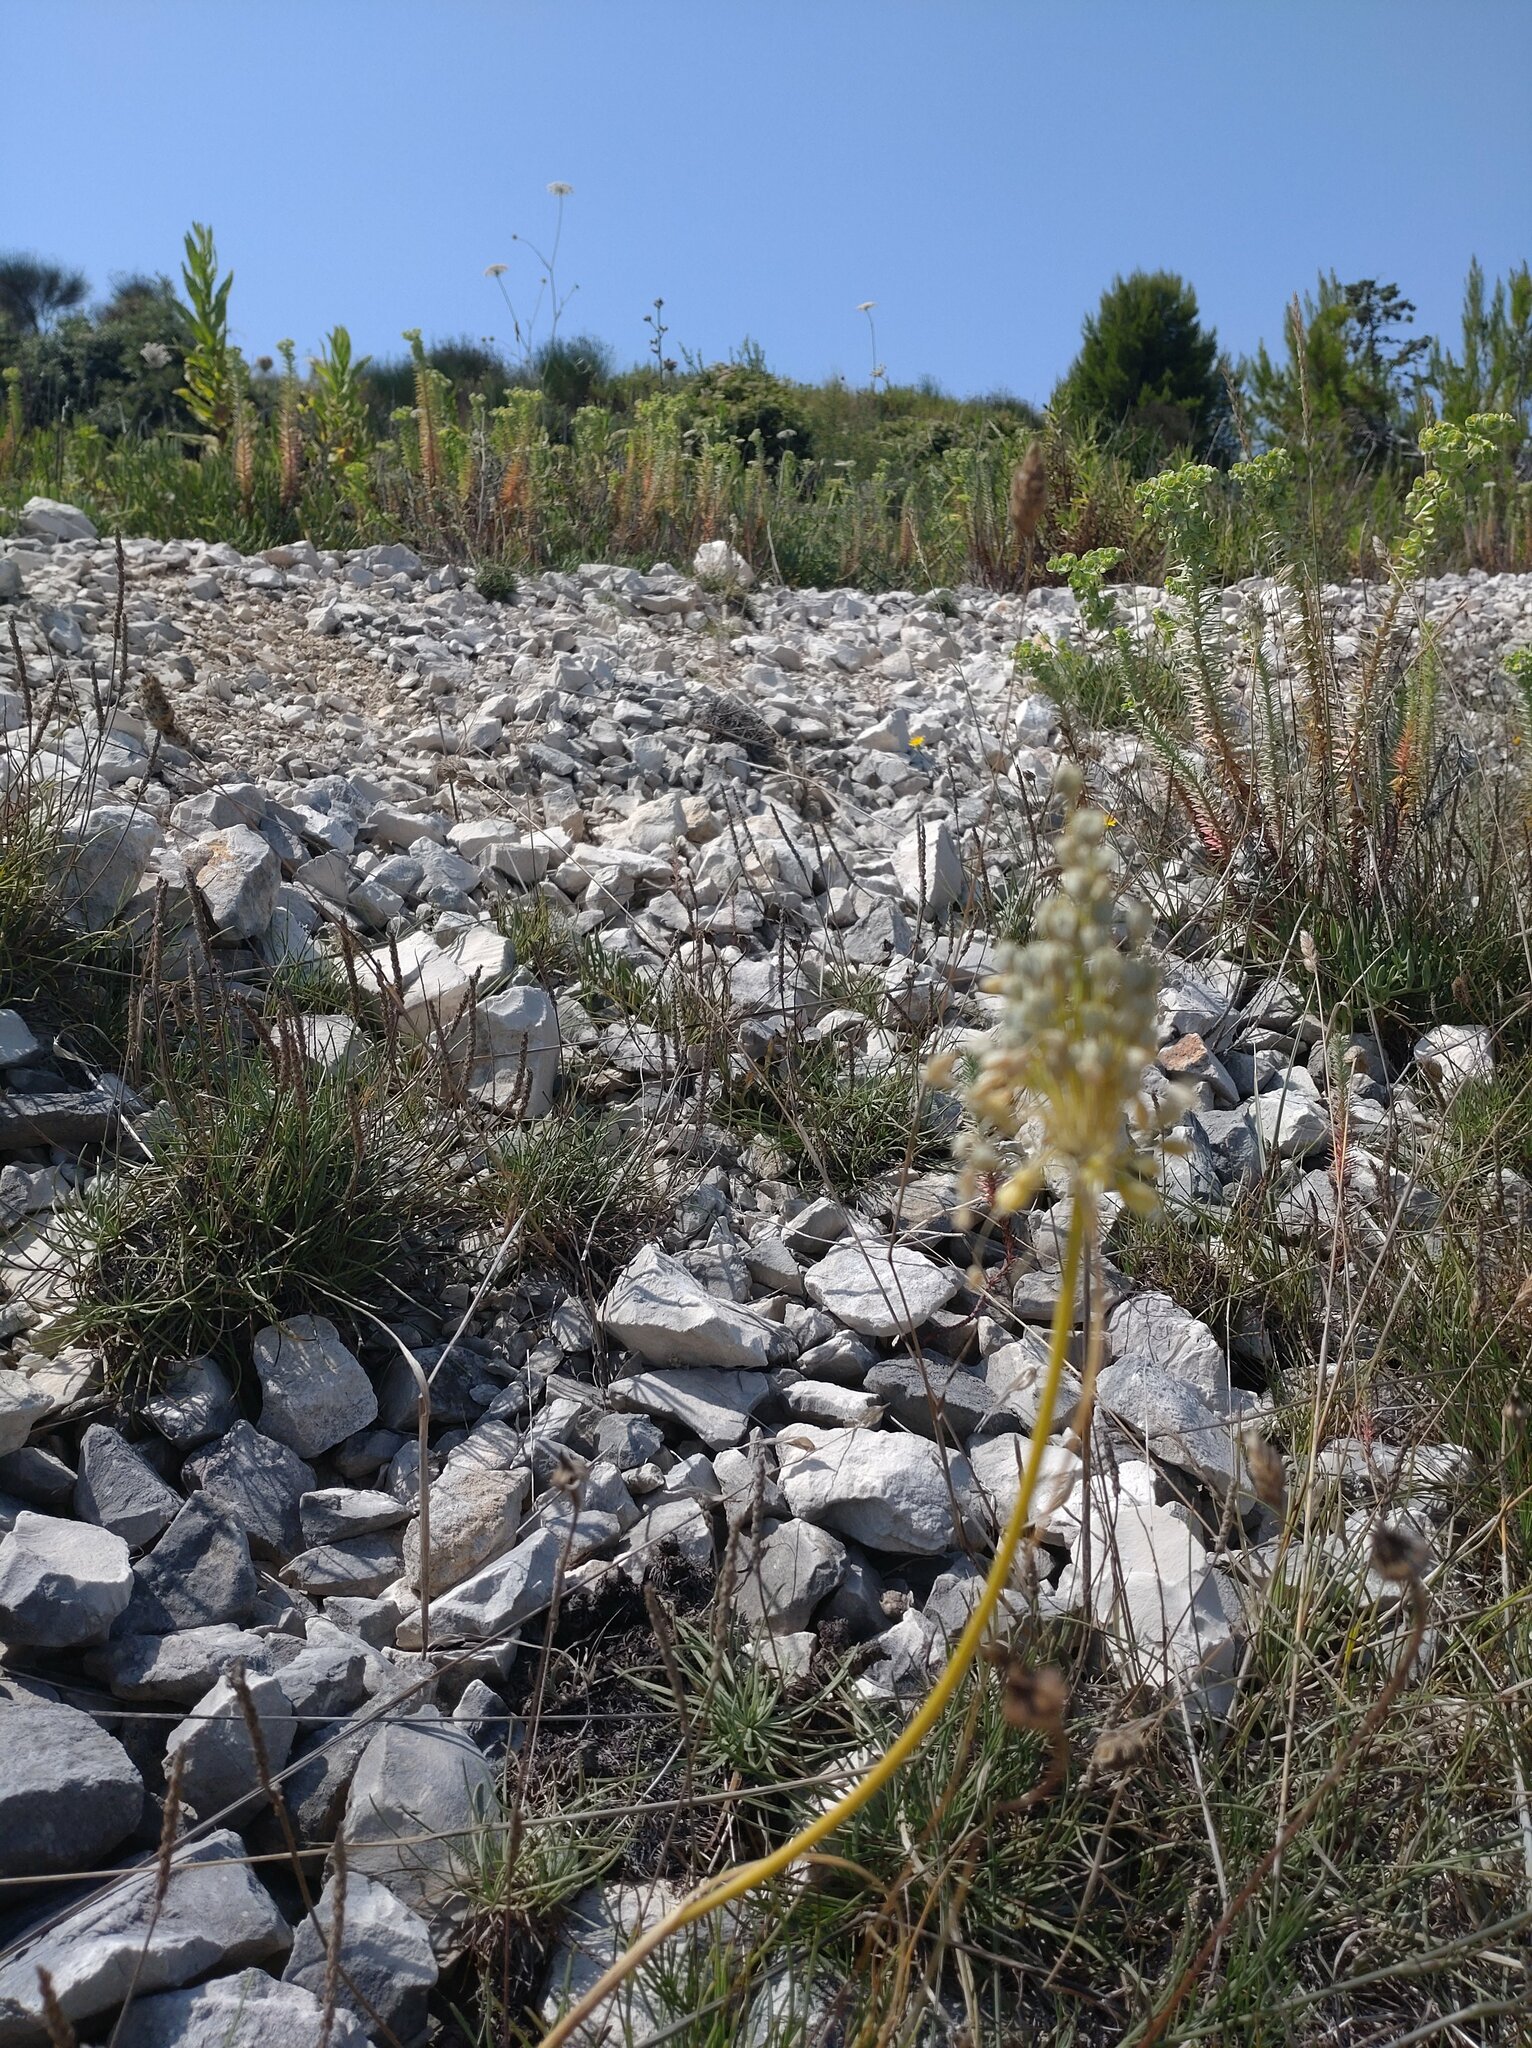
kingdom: Plantae
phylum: Tracheophyta
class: Liliopsida
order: Asparagales
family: Amaryllidaceae
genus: Allium
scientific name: Allium flavum
